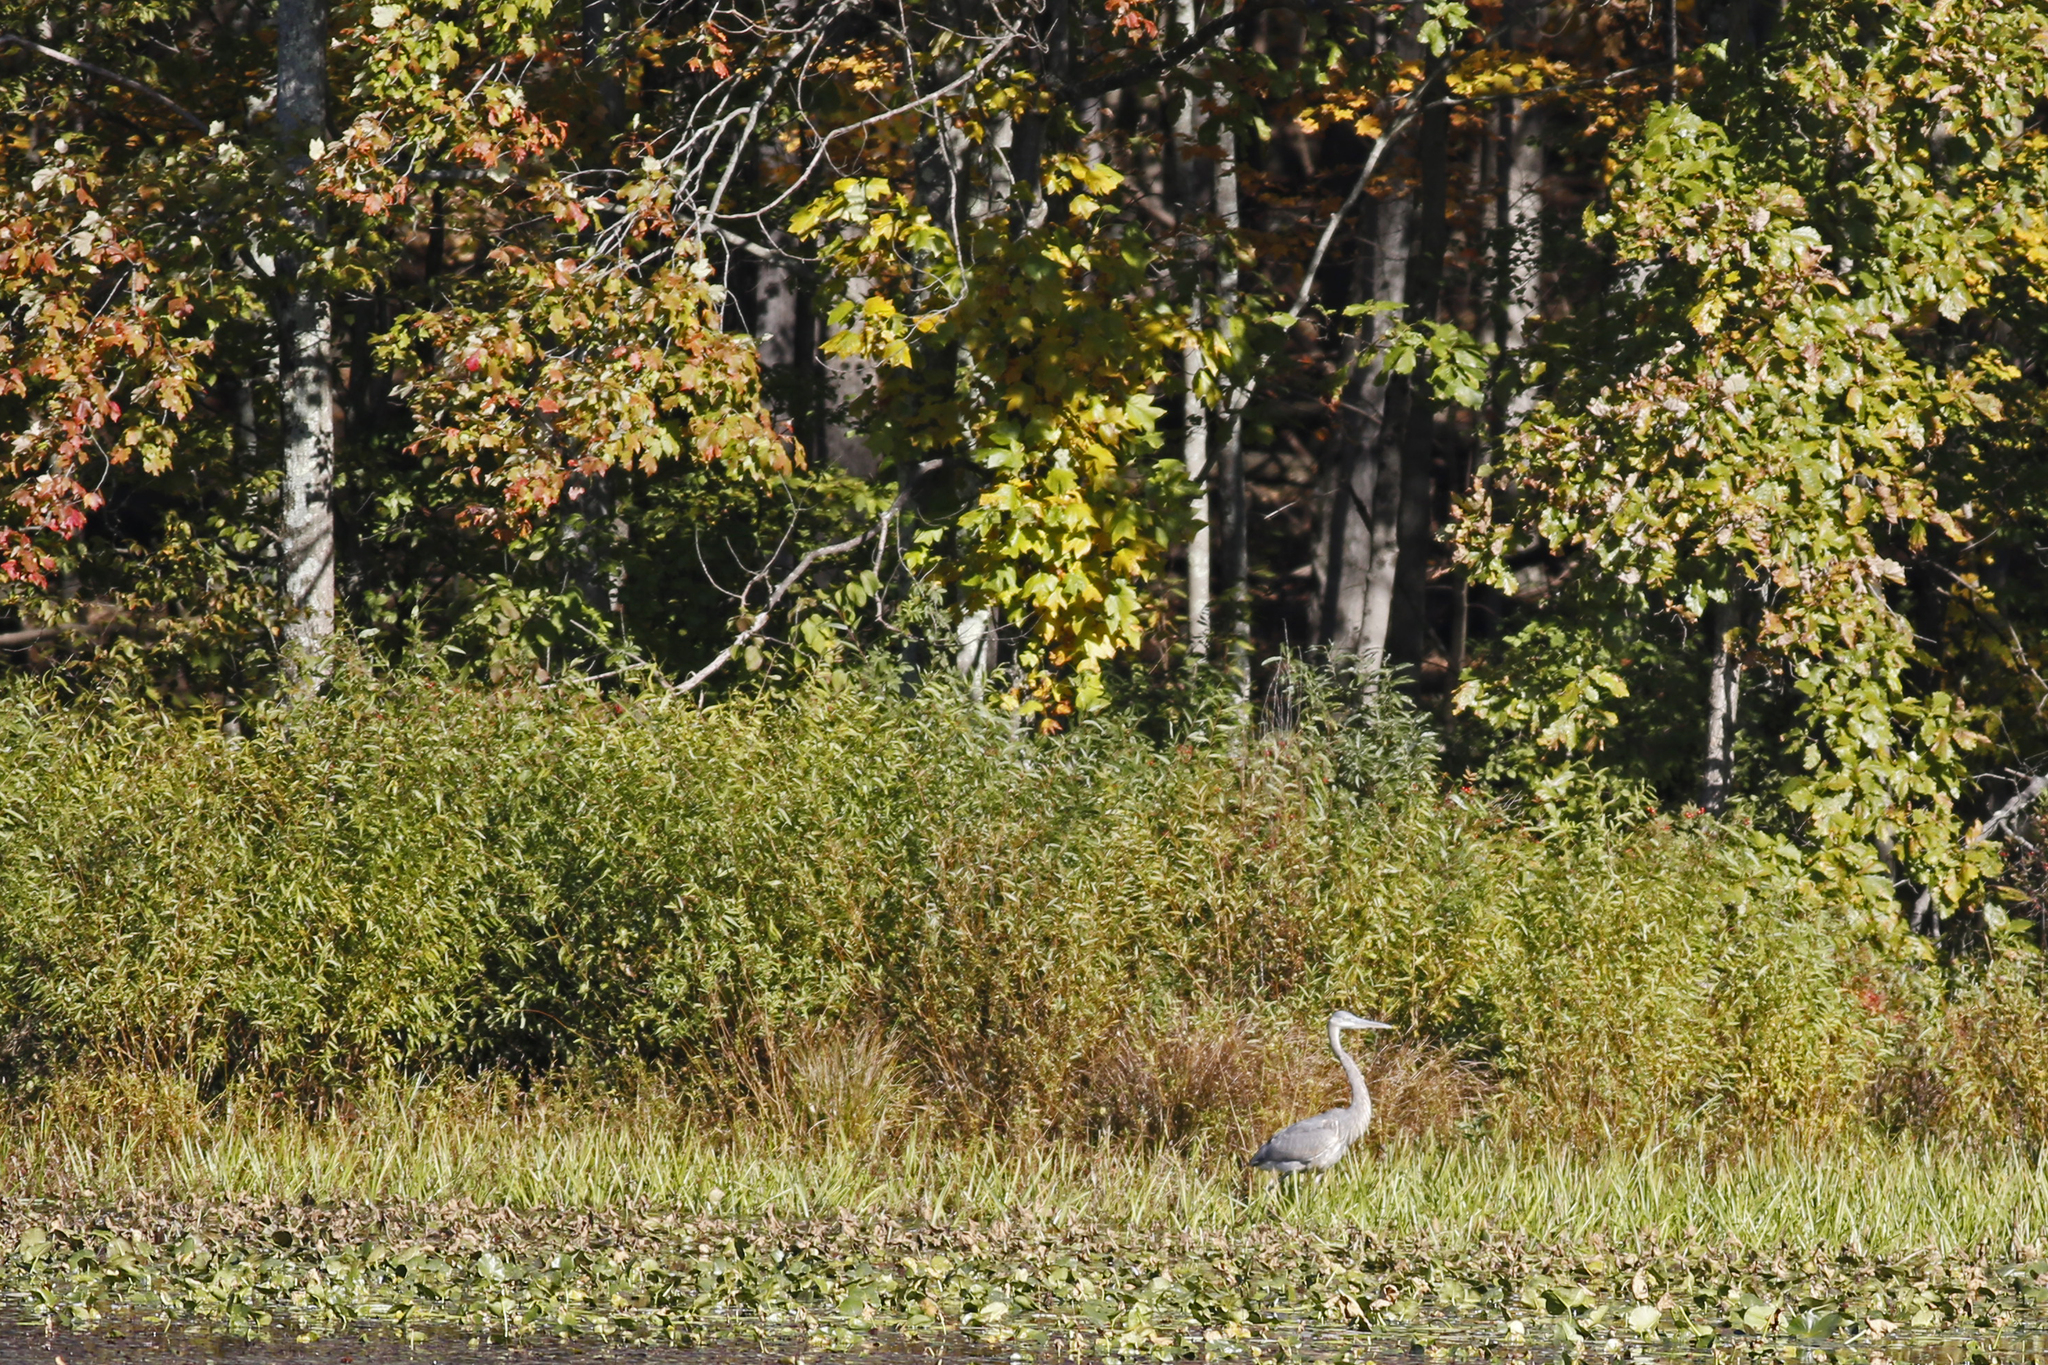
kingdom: Animalia
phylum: Chordata
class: Aves
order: Pelecaniformes
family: Ardeidae
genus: Ardea
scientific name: Ardea herodias
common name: Great blue heron
